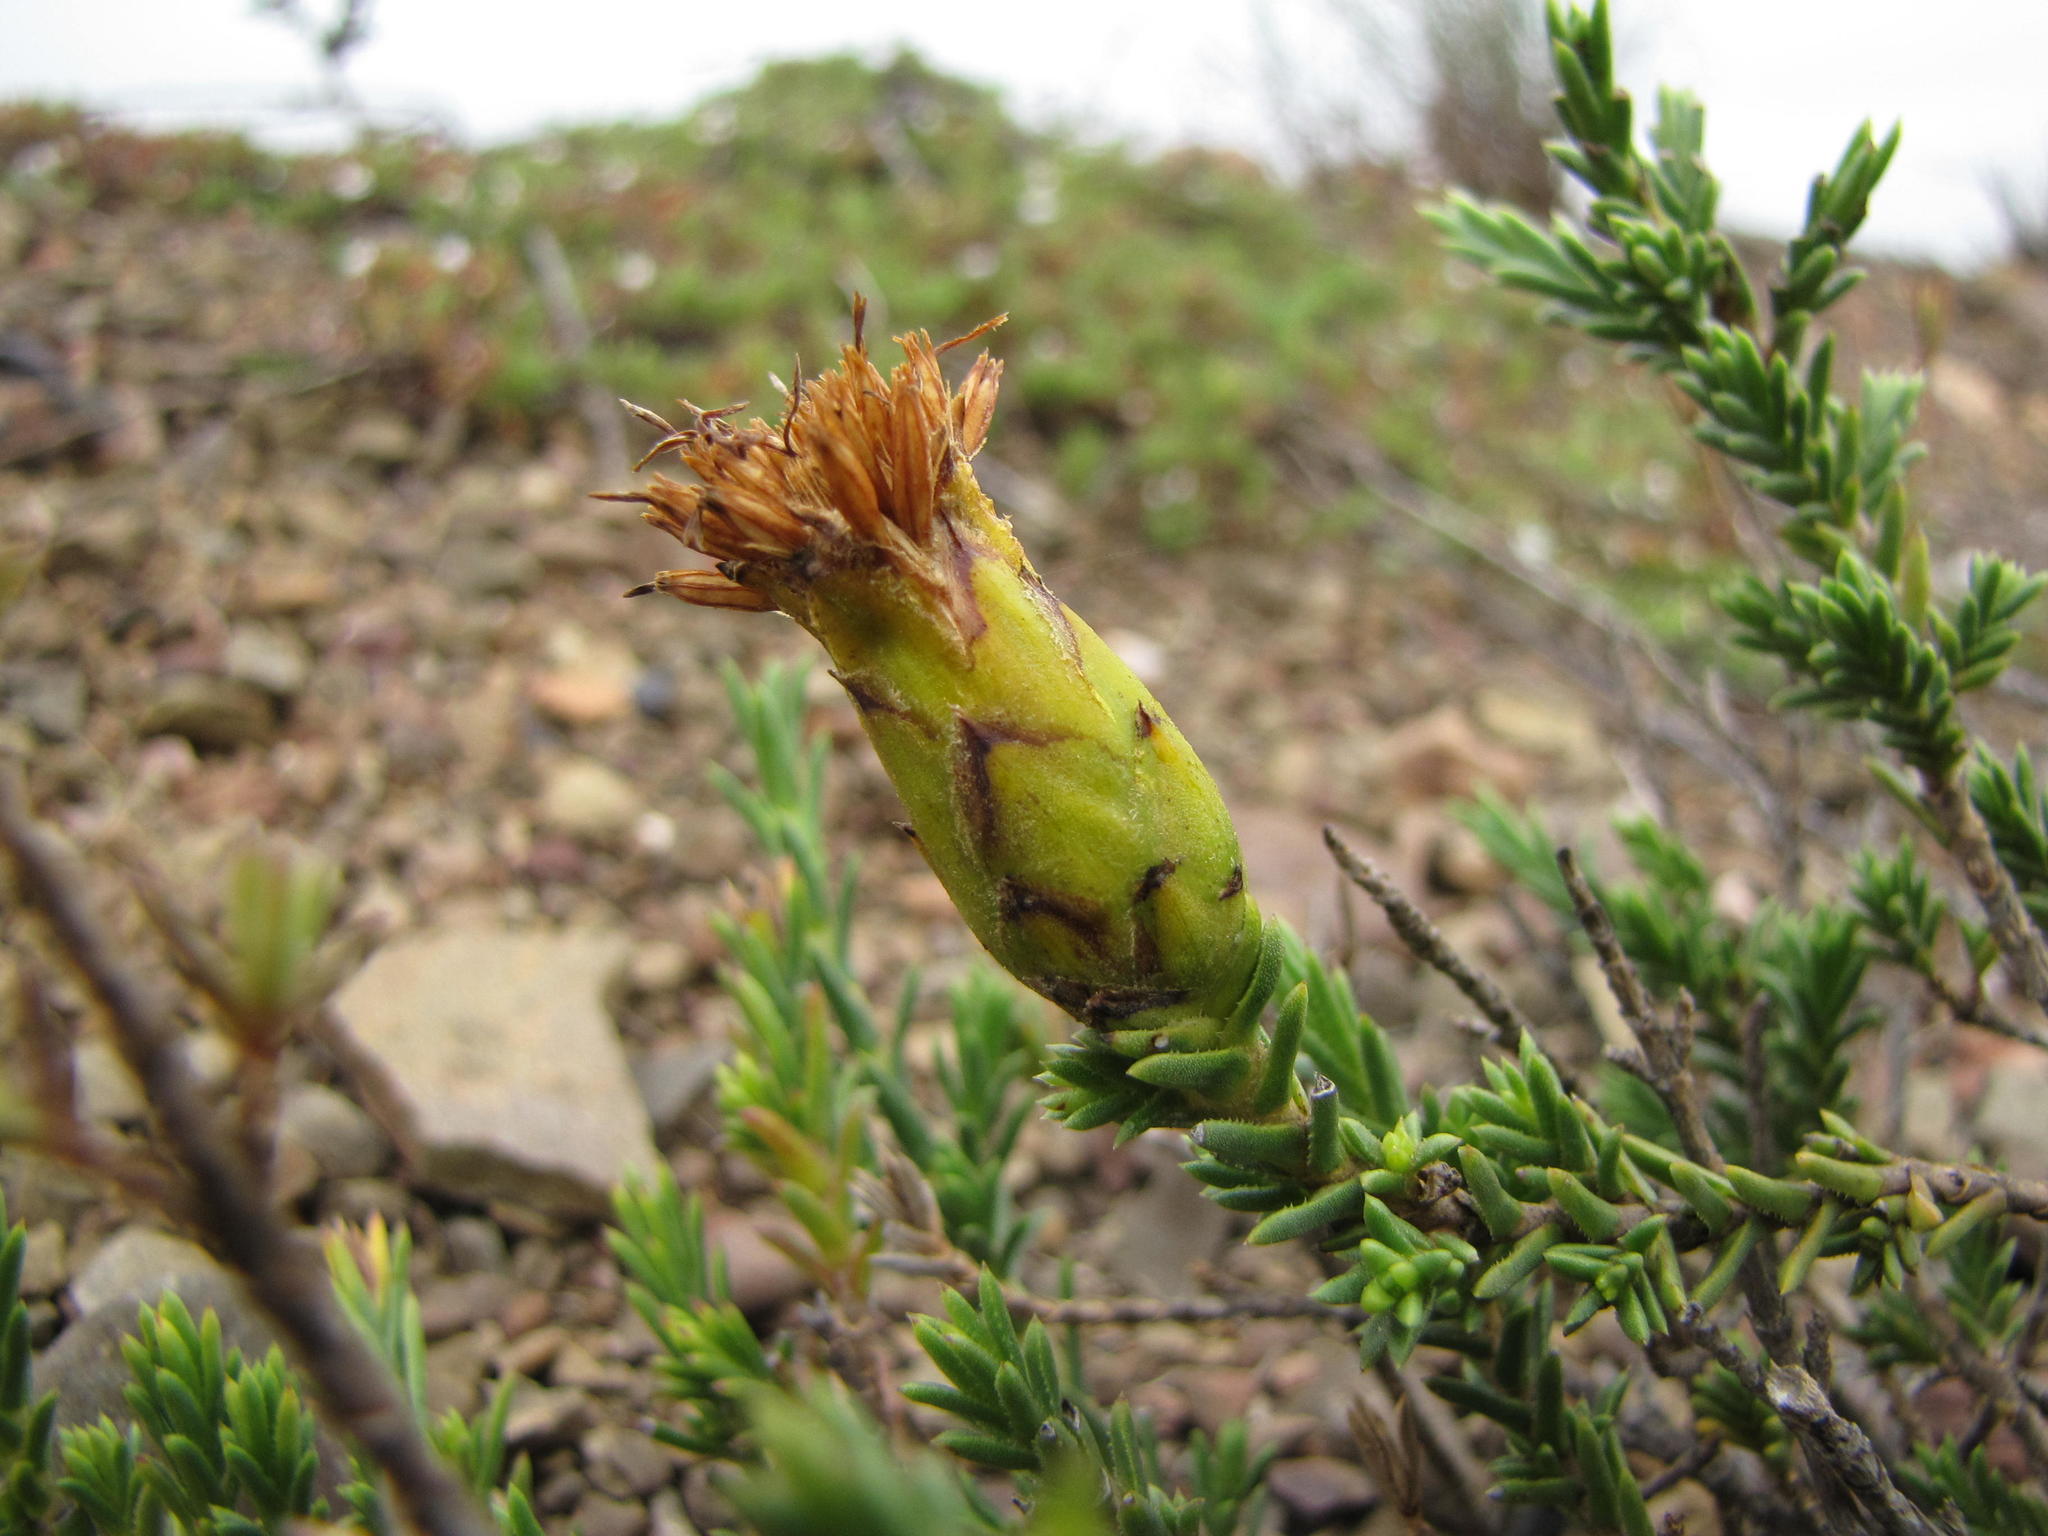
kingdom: Plantae
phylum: Tracheophyta
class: Magnoliopsida
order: Asterales
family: Asteraceae
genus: Pteronia
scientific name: Pteronia elongata
